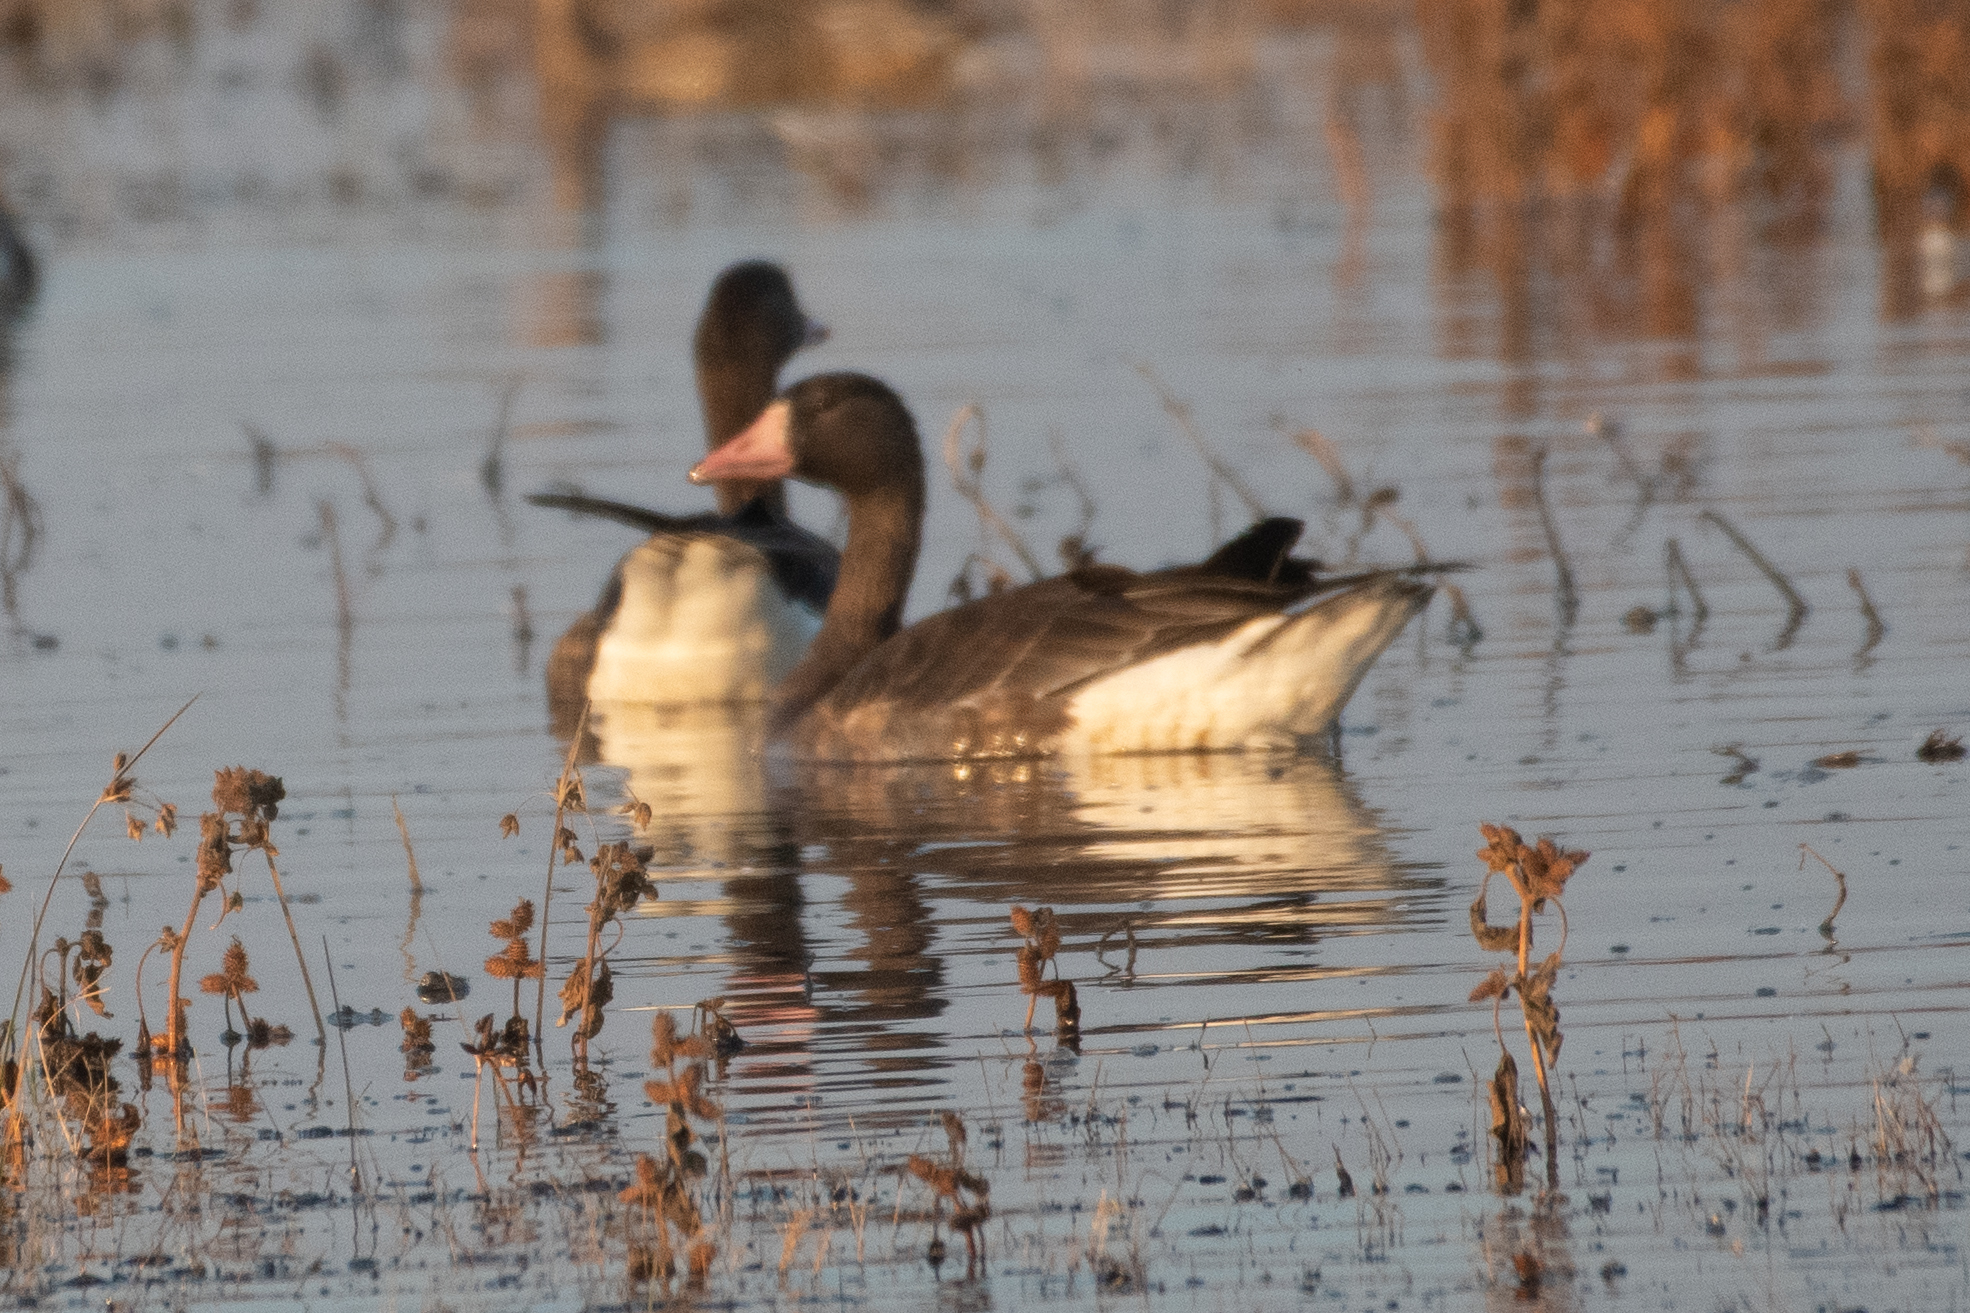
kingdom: Animalia
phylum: Chordata
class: Aves
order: Anseriformes
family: Anatidae
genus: Anser
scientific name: Anser albifrons
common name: Greater white-fronted goose
